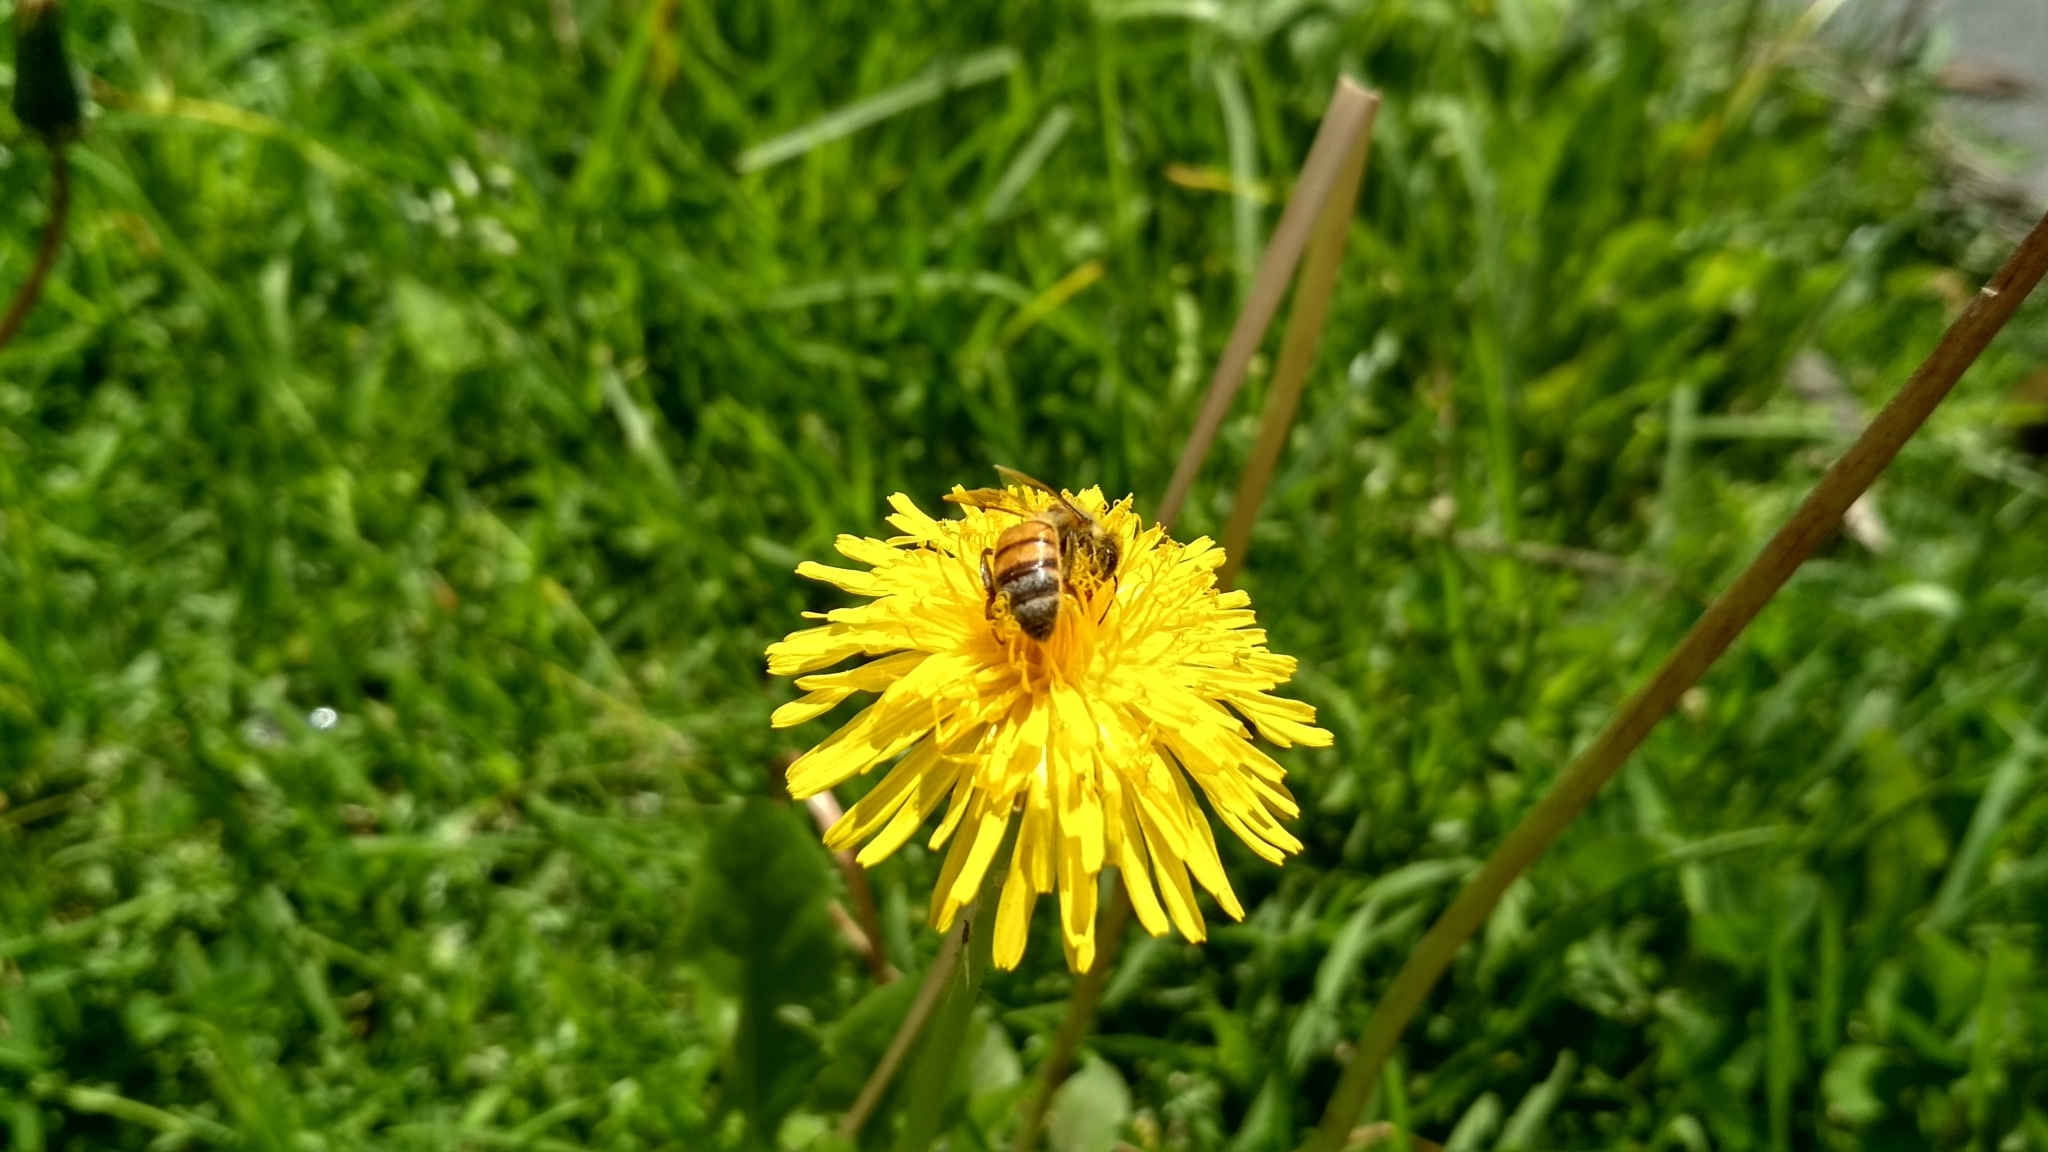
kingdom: Plantae
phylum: Tracheophyta
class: Magnoliopsida
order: Asterales
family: Asteraceae
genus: Taraxacum
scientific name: Taraxacum officinale
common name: Common dandelion
